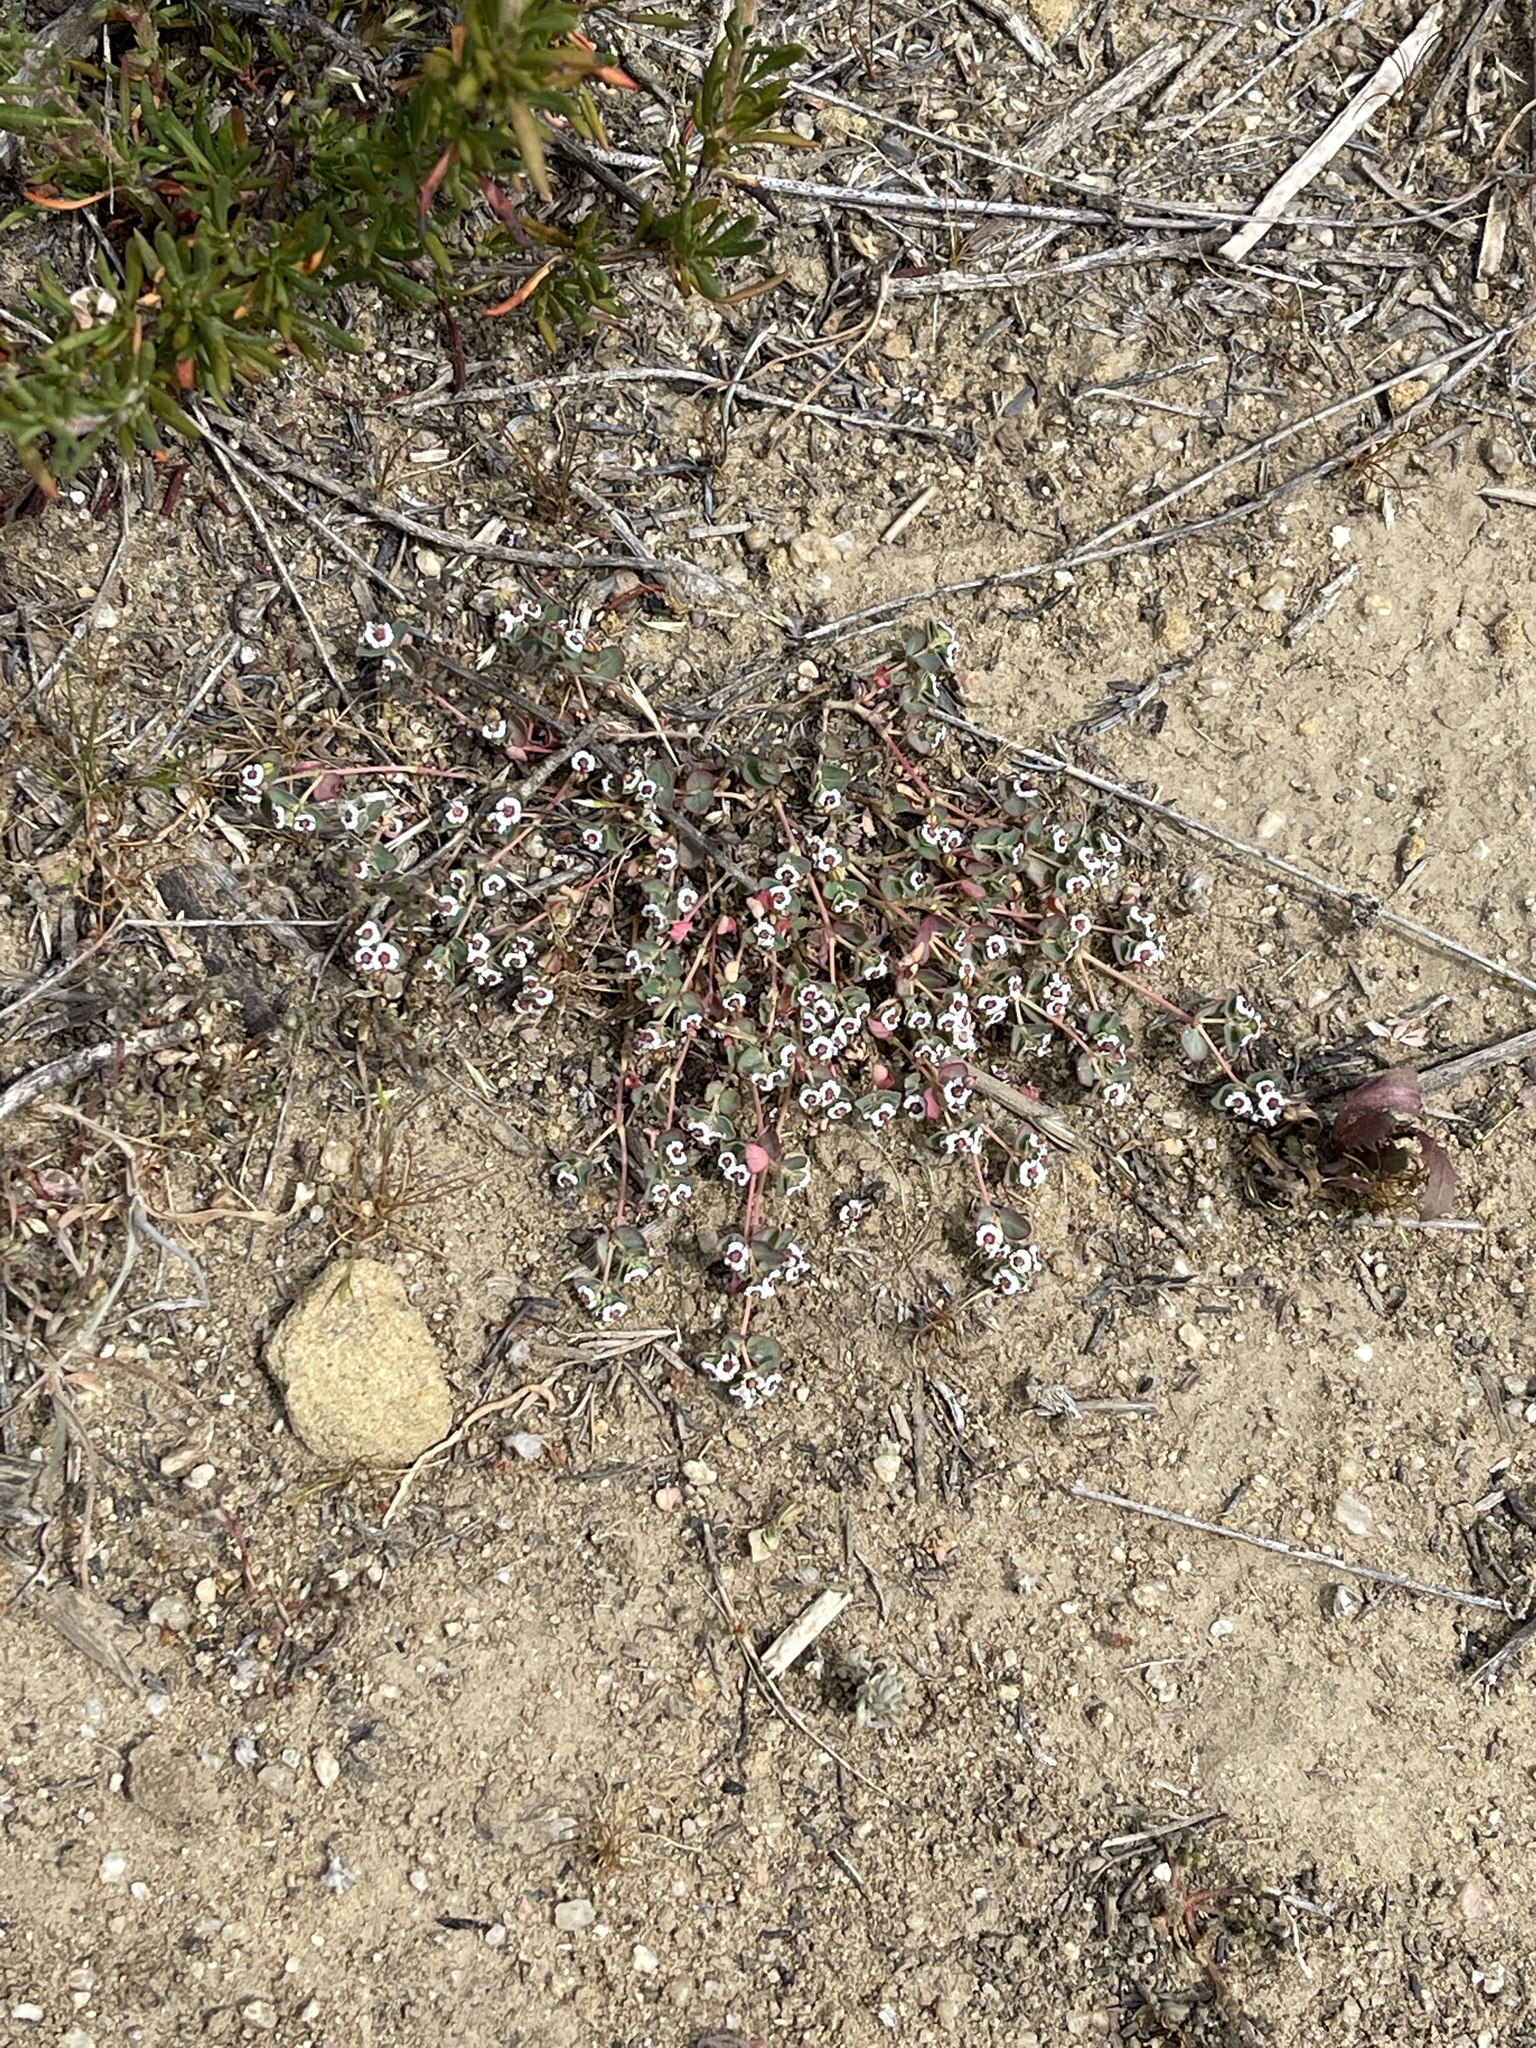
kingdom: Plantae
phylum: Tracheophyta
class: Magnoliopsida
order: Malpighiales
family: Euphorbiaceae
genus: Euphorbia
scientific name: Euphorbia polycarpa
